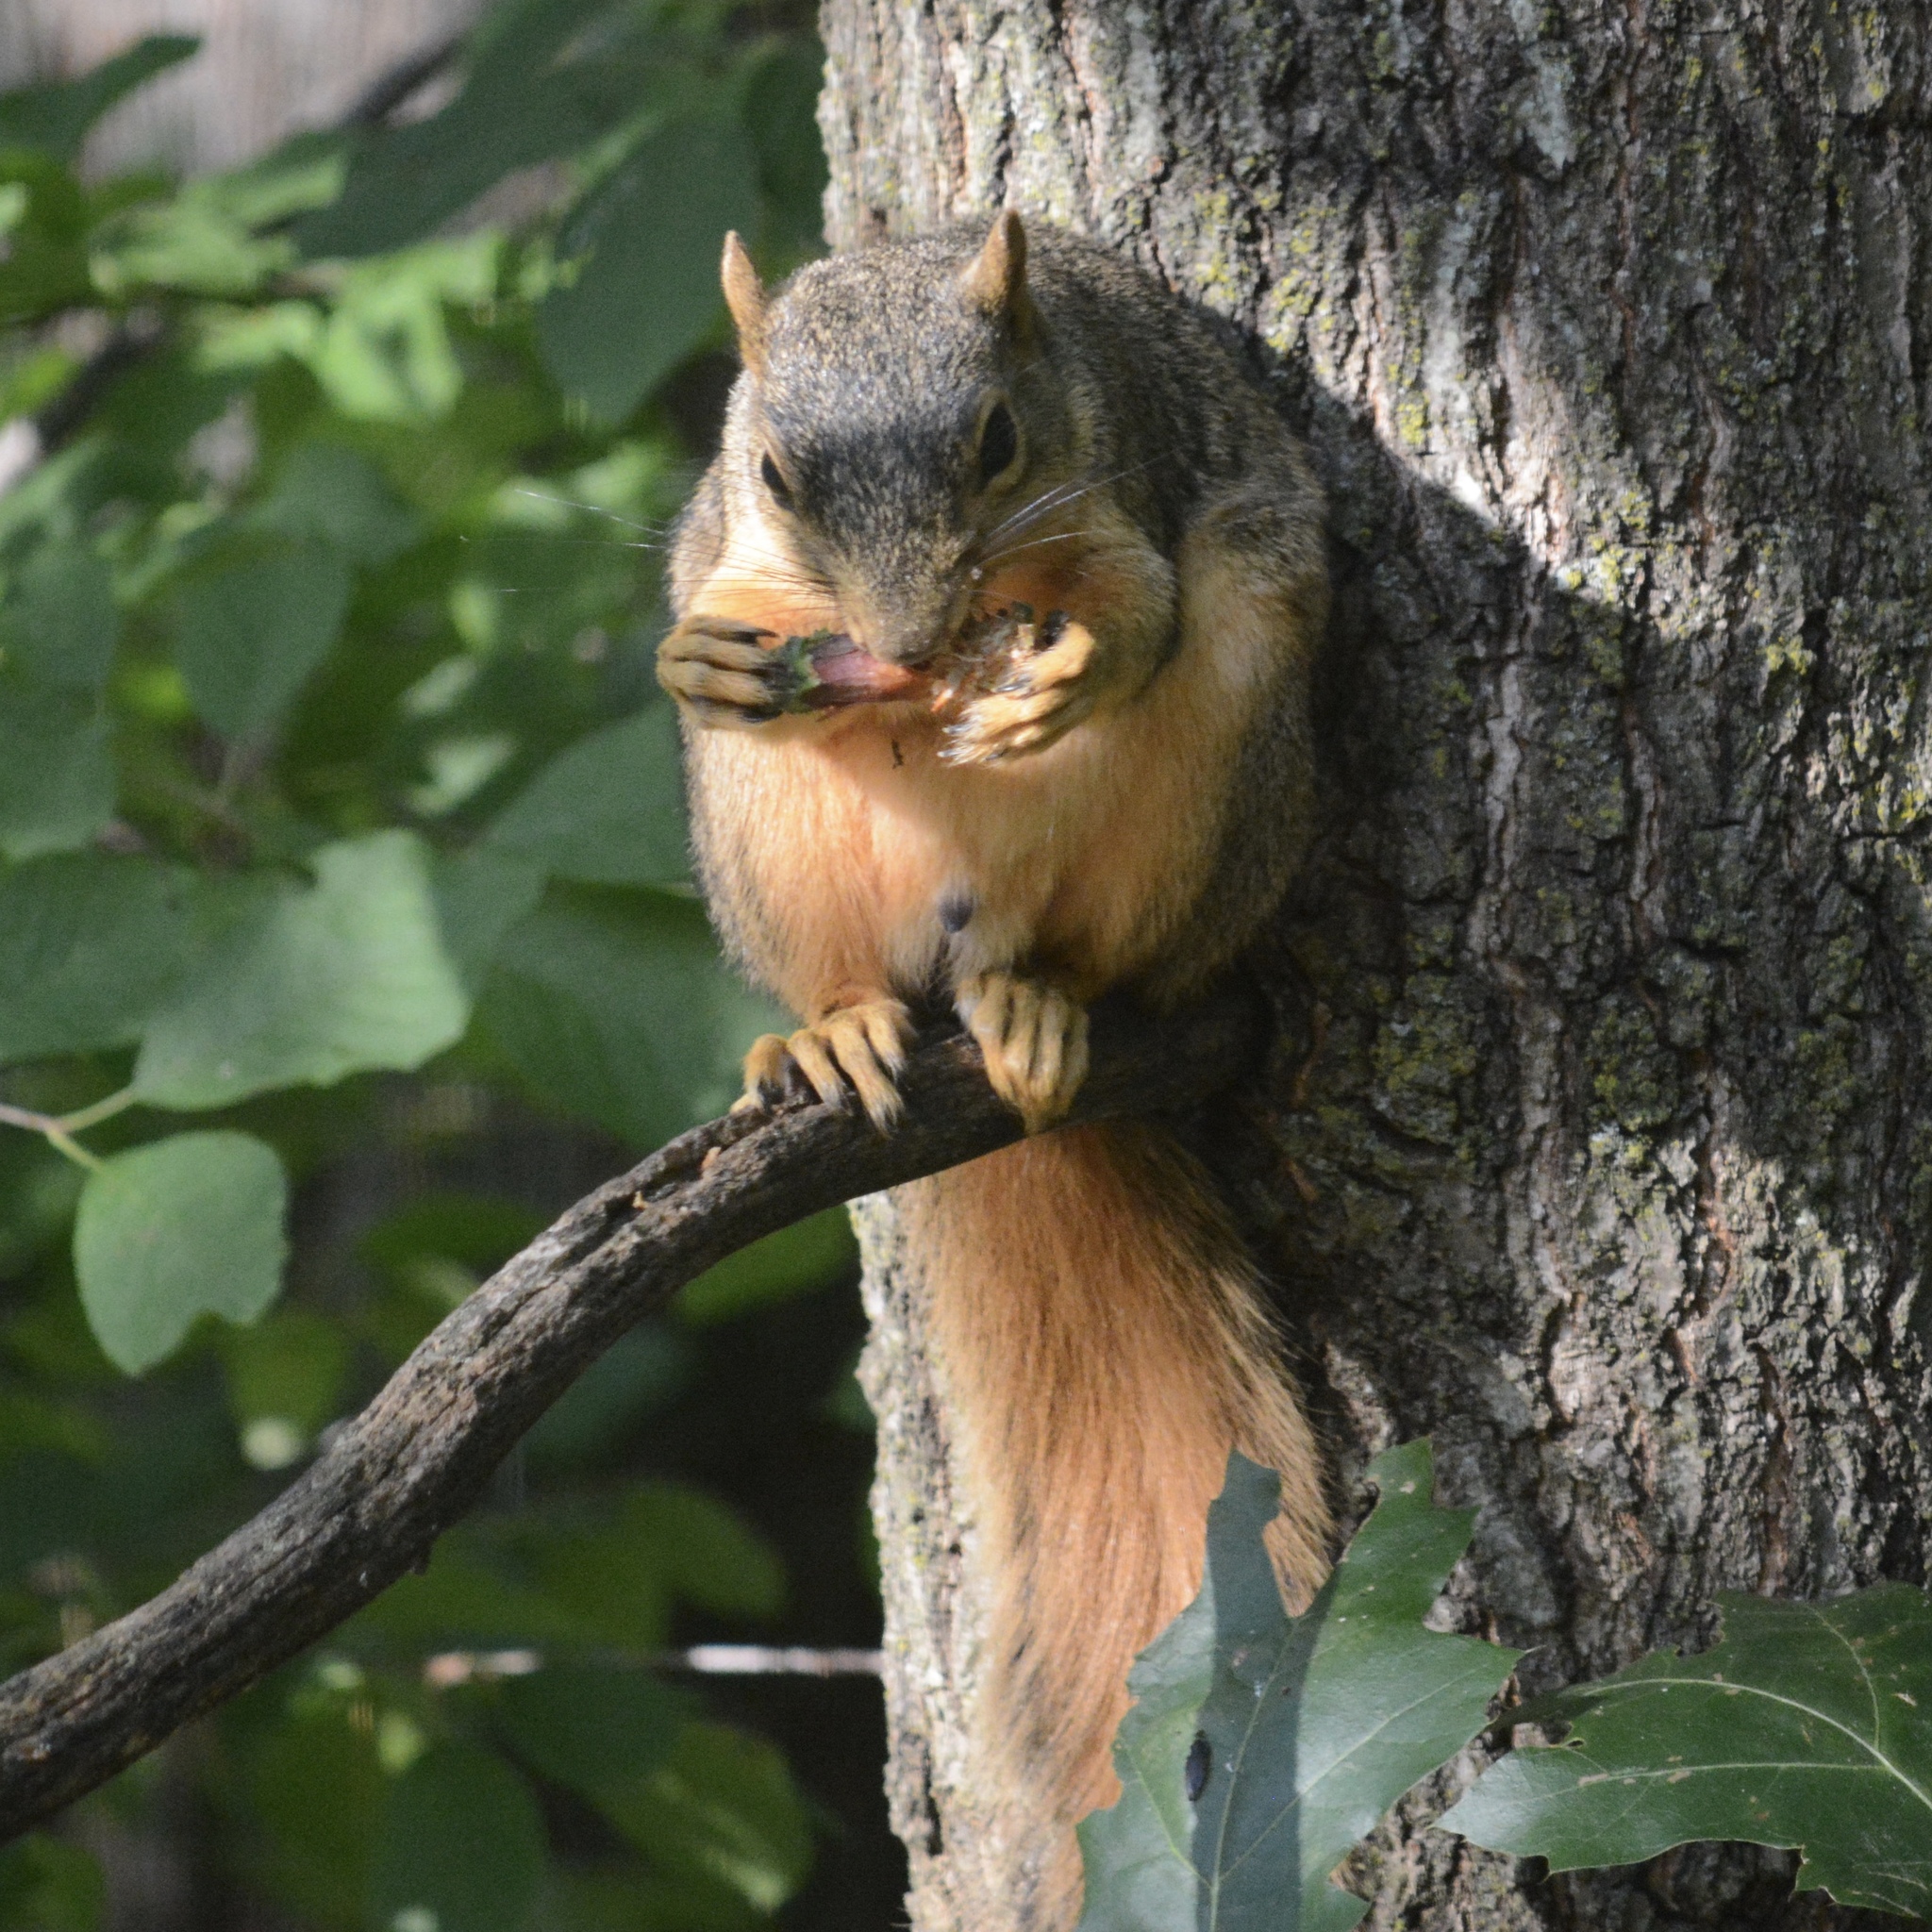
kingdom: Animalia
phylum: Chordata
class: Mammalia
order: Rodentia
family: Sciuridae
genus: Sciurus
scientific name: Sciurus niger
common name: Fox squirrel
